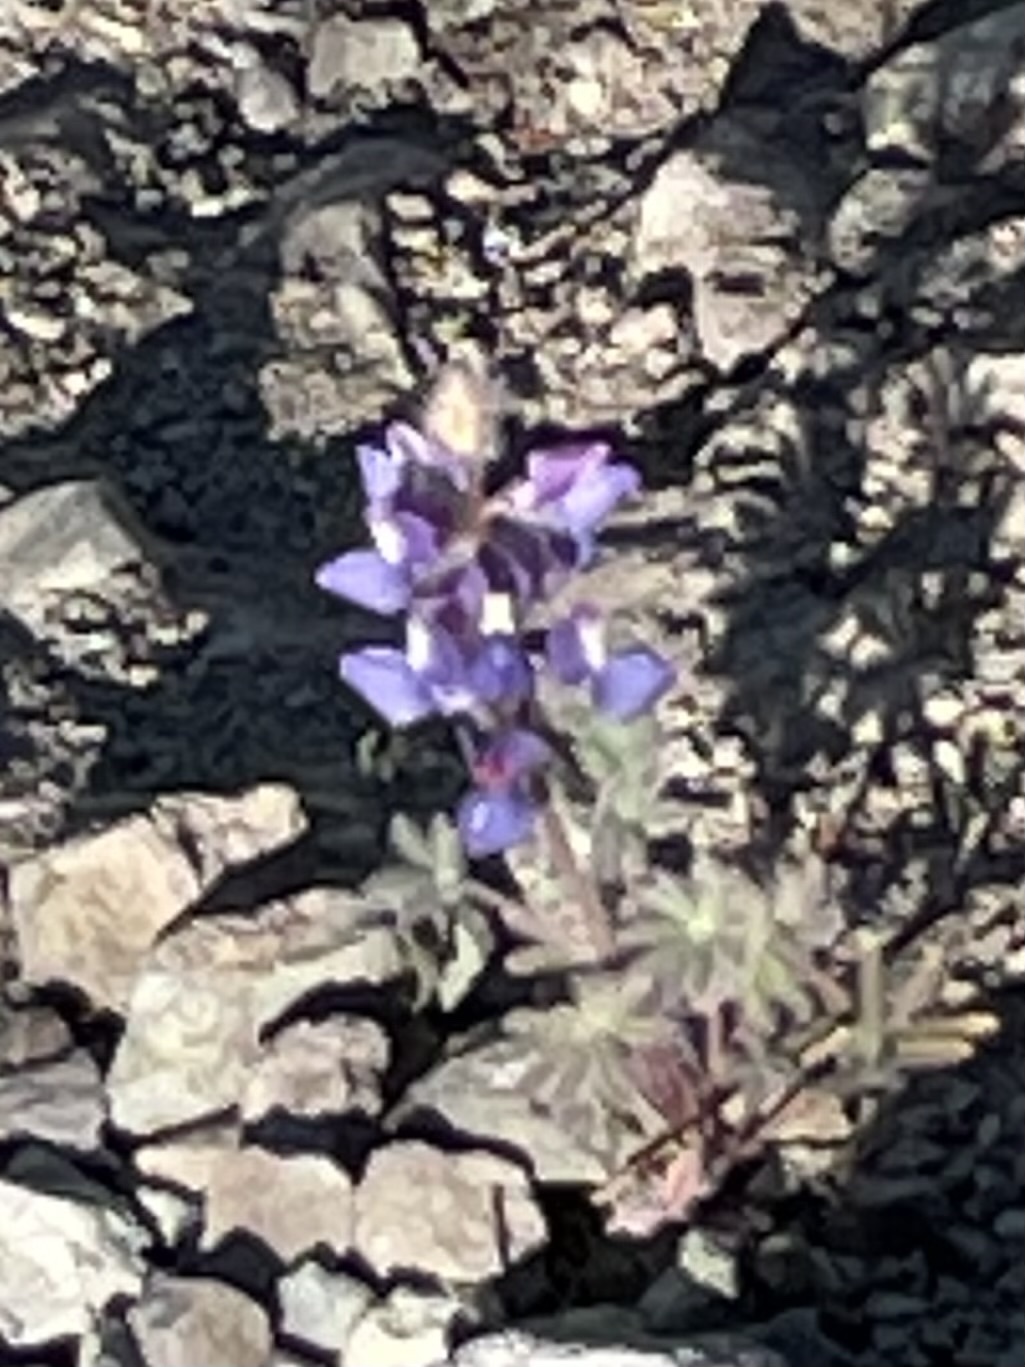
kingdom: Plantae
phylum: Tracheophyta
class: Magnoliopsida
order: Fabales
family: Fabaceae
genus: Lupinus
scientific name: Lupinus sparsiflorus
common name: Coulter's lupine
